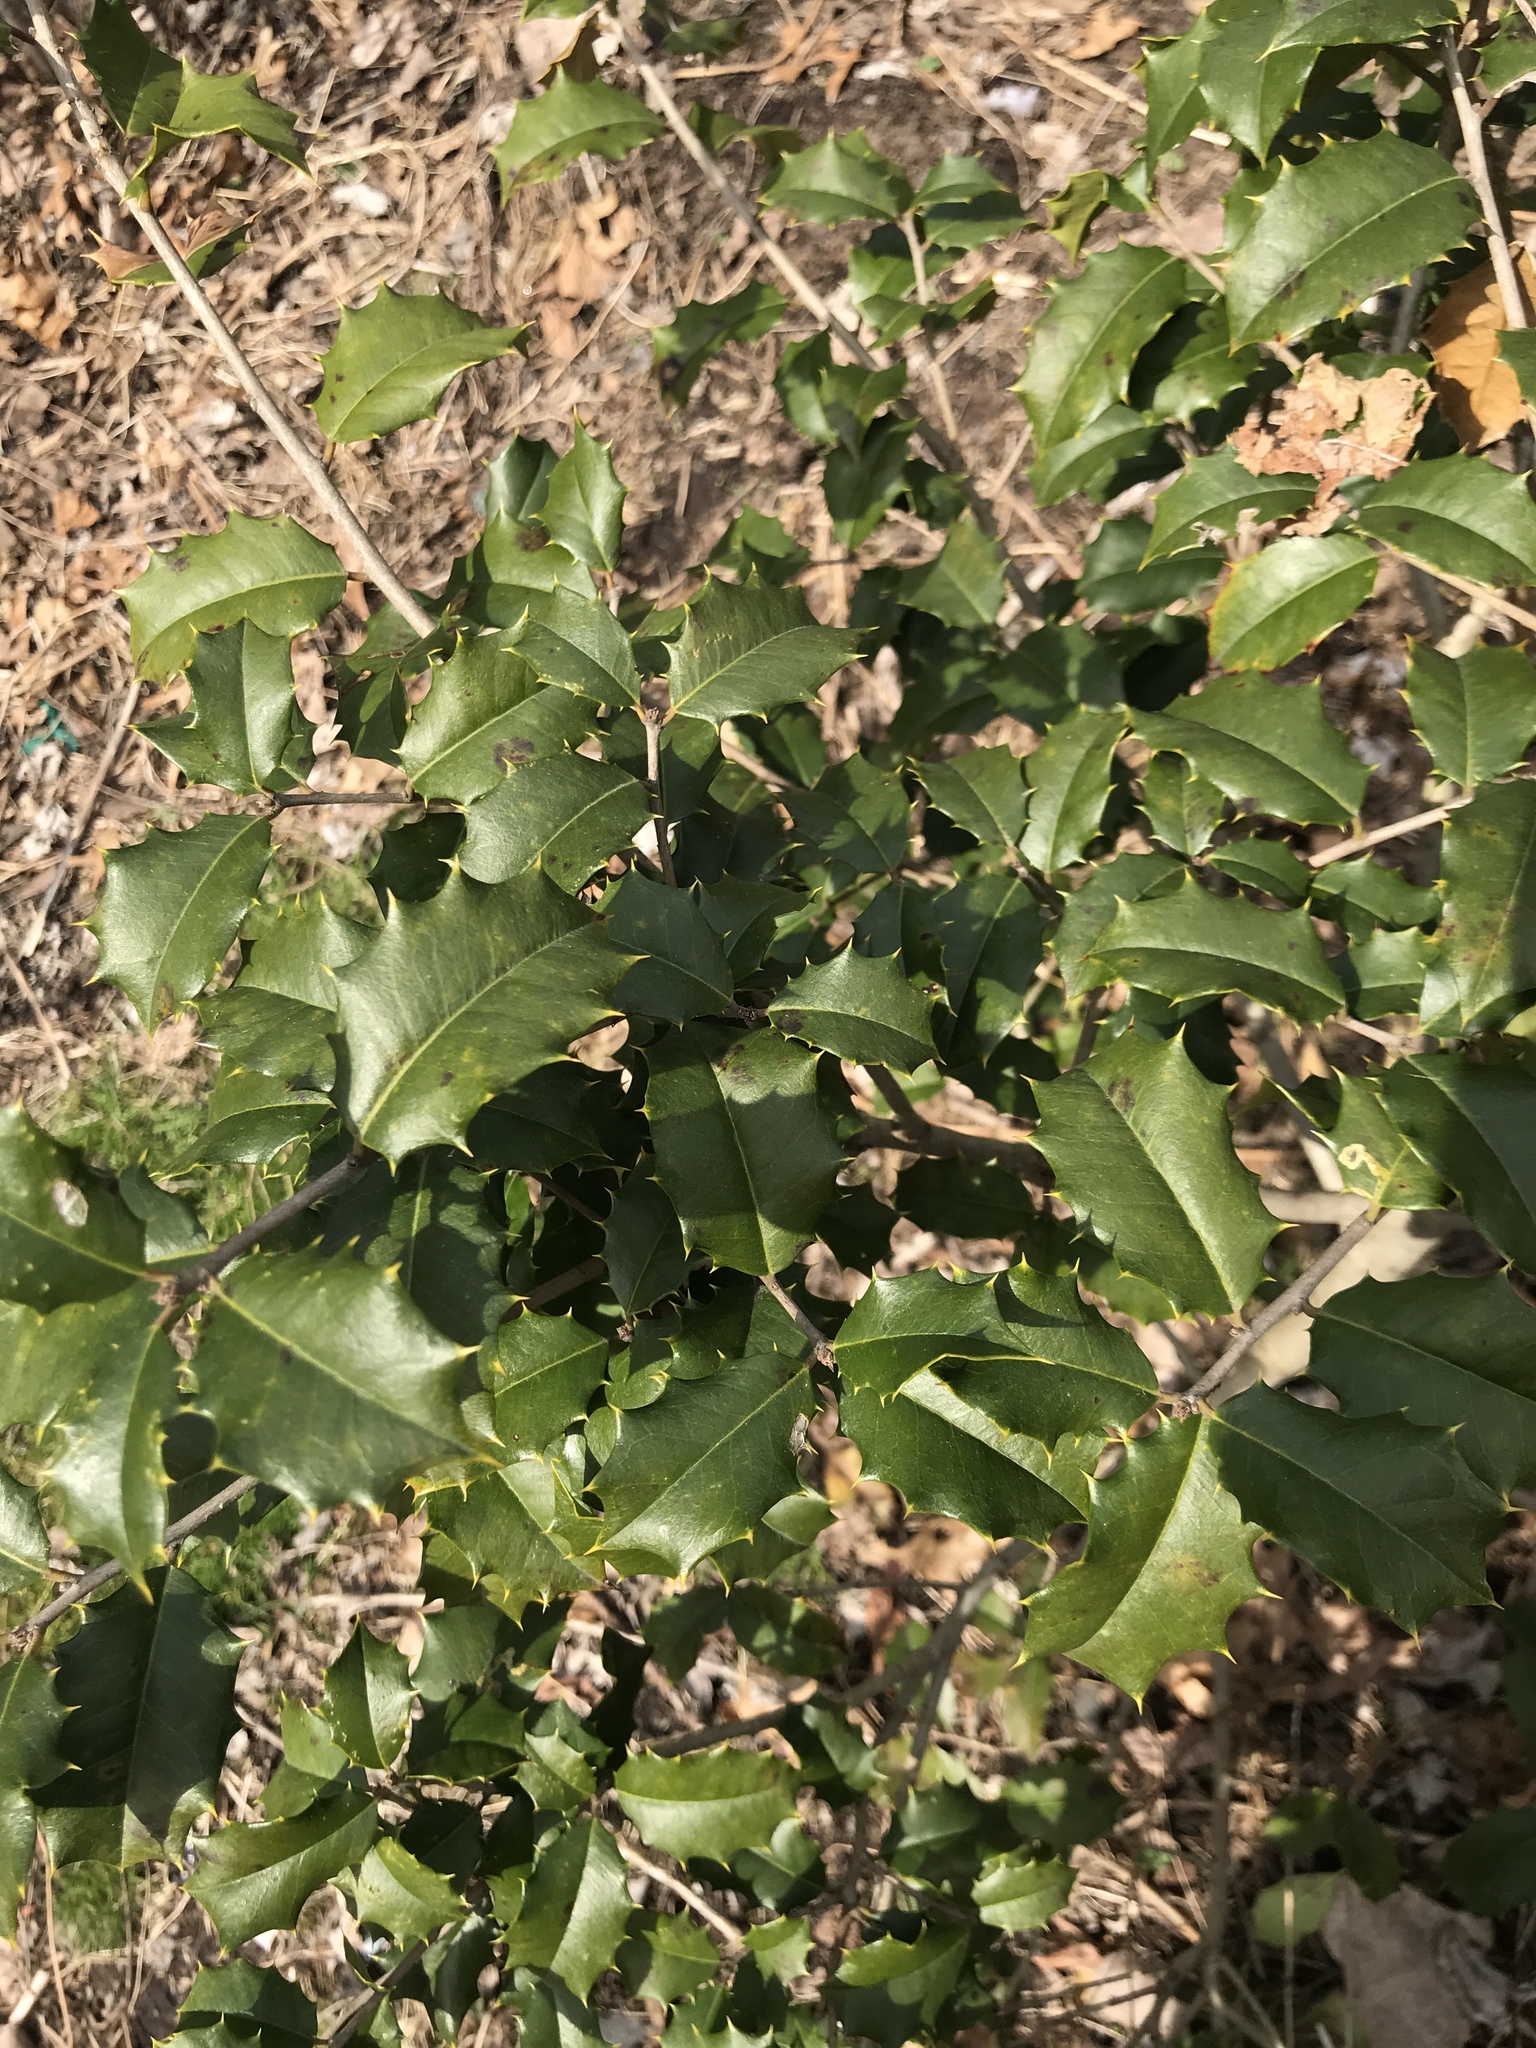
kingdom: Plantae
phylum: Tracheophyta
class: Magnoliopsida
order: Aquifoliales
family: Aquifoliaceae
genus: Ilex
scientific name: Ilex opaca
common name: American holly
